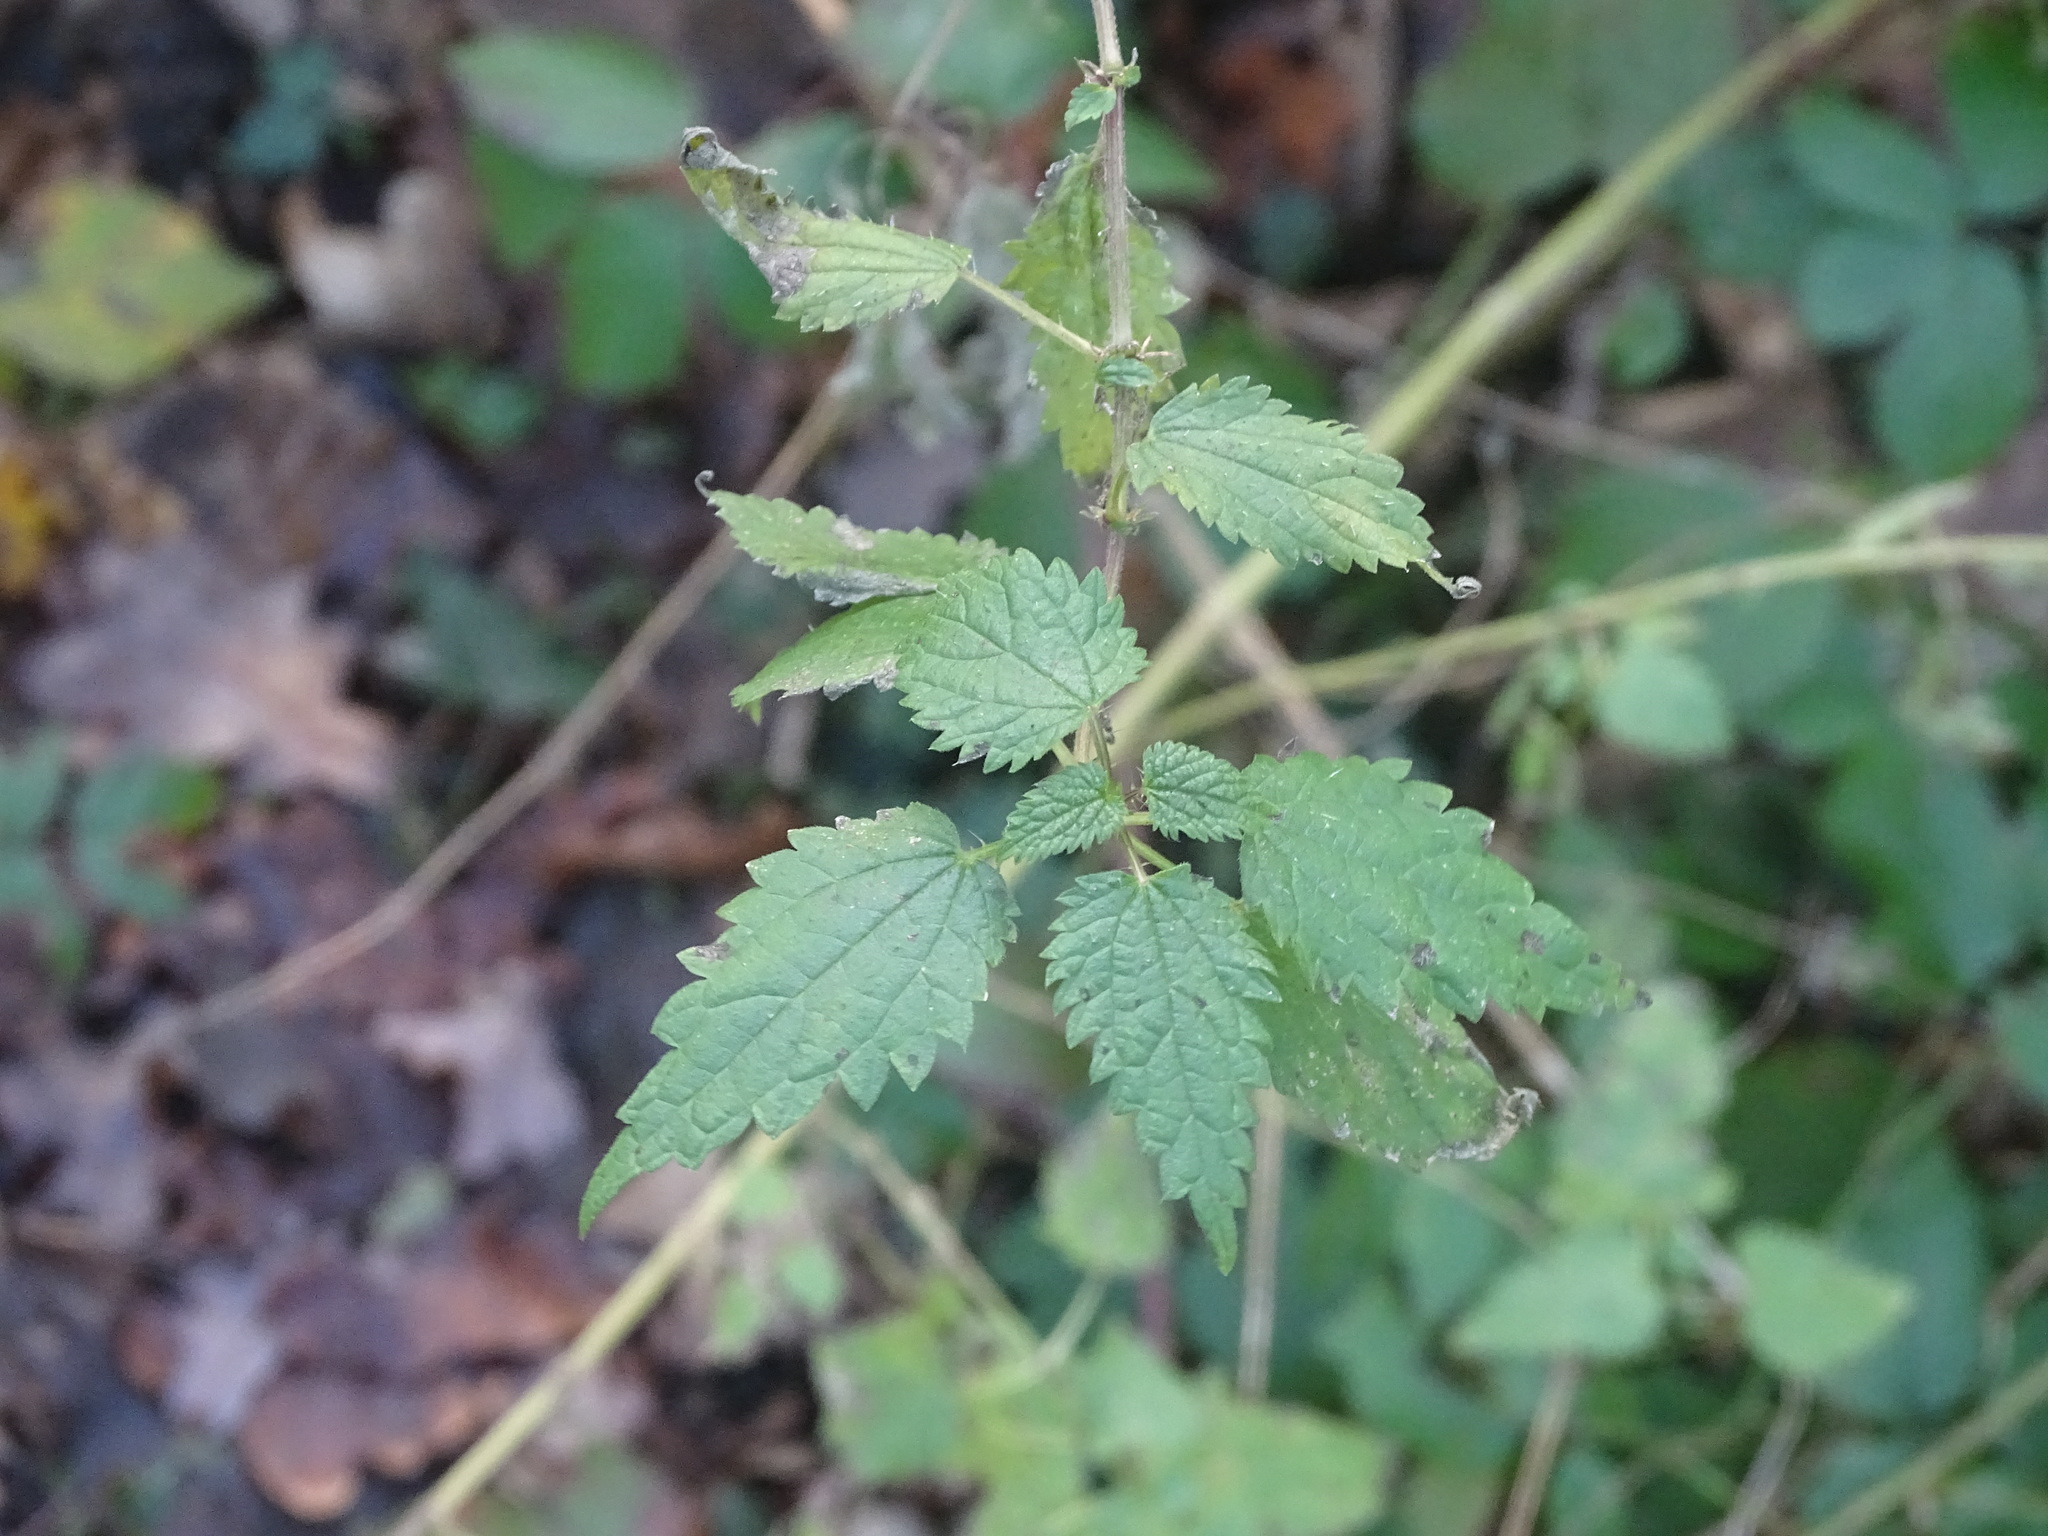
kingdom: Plantae
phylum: Tracheophyta
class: Magnoliopsida
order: Rosales
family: Urticaceae
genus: Urtica
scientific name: Urtica dioica
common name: Common nettle
